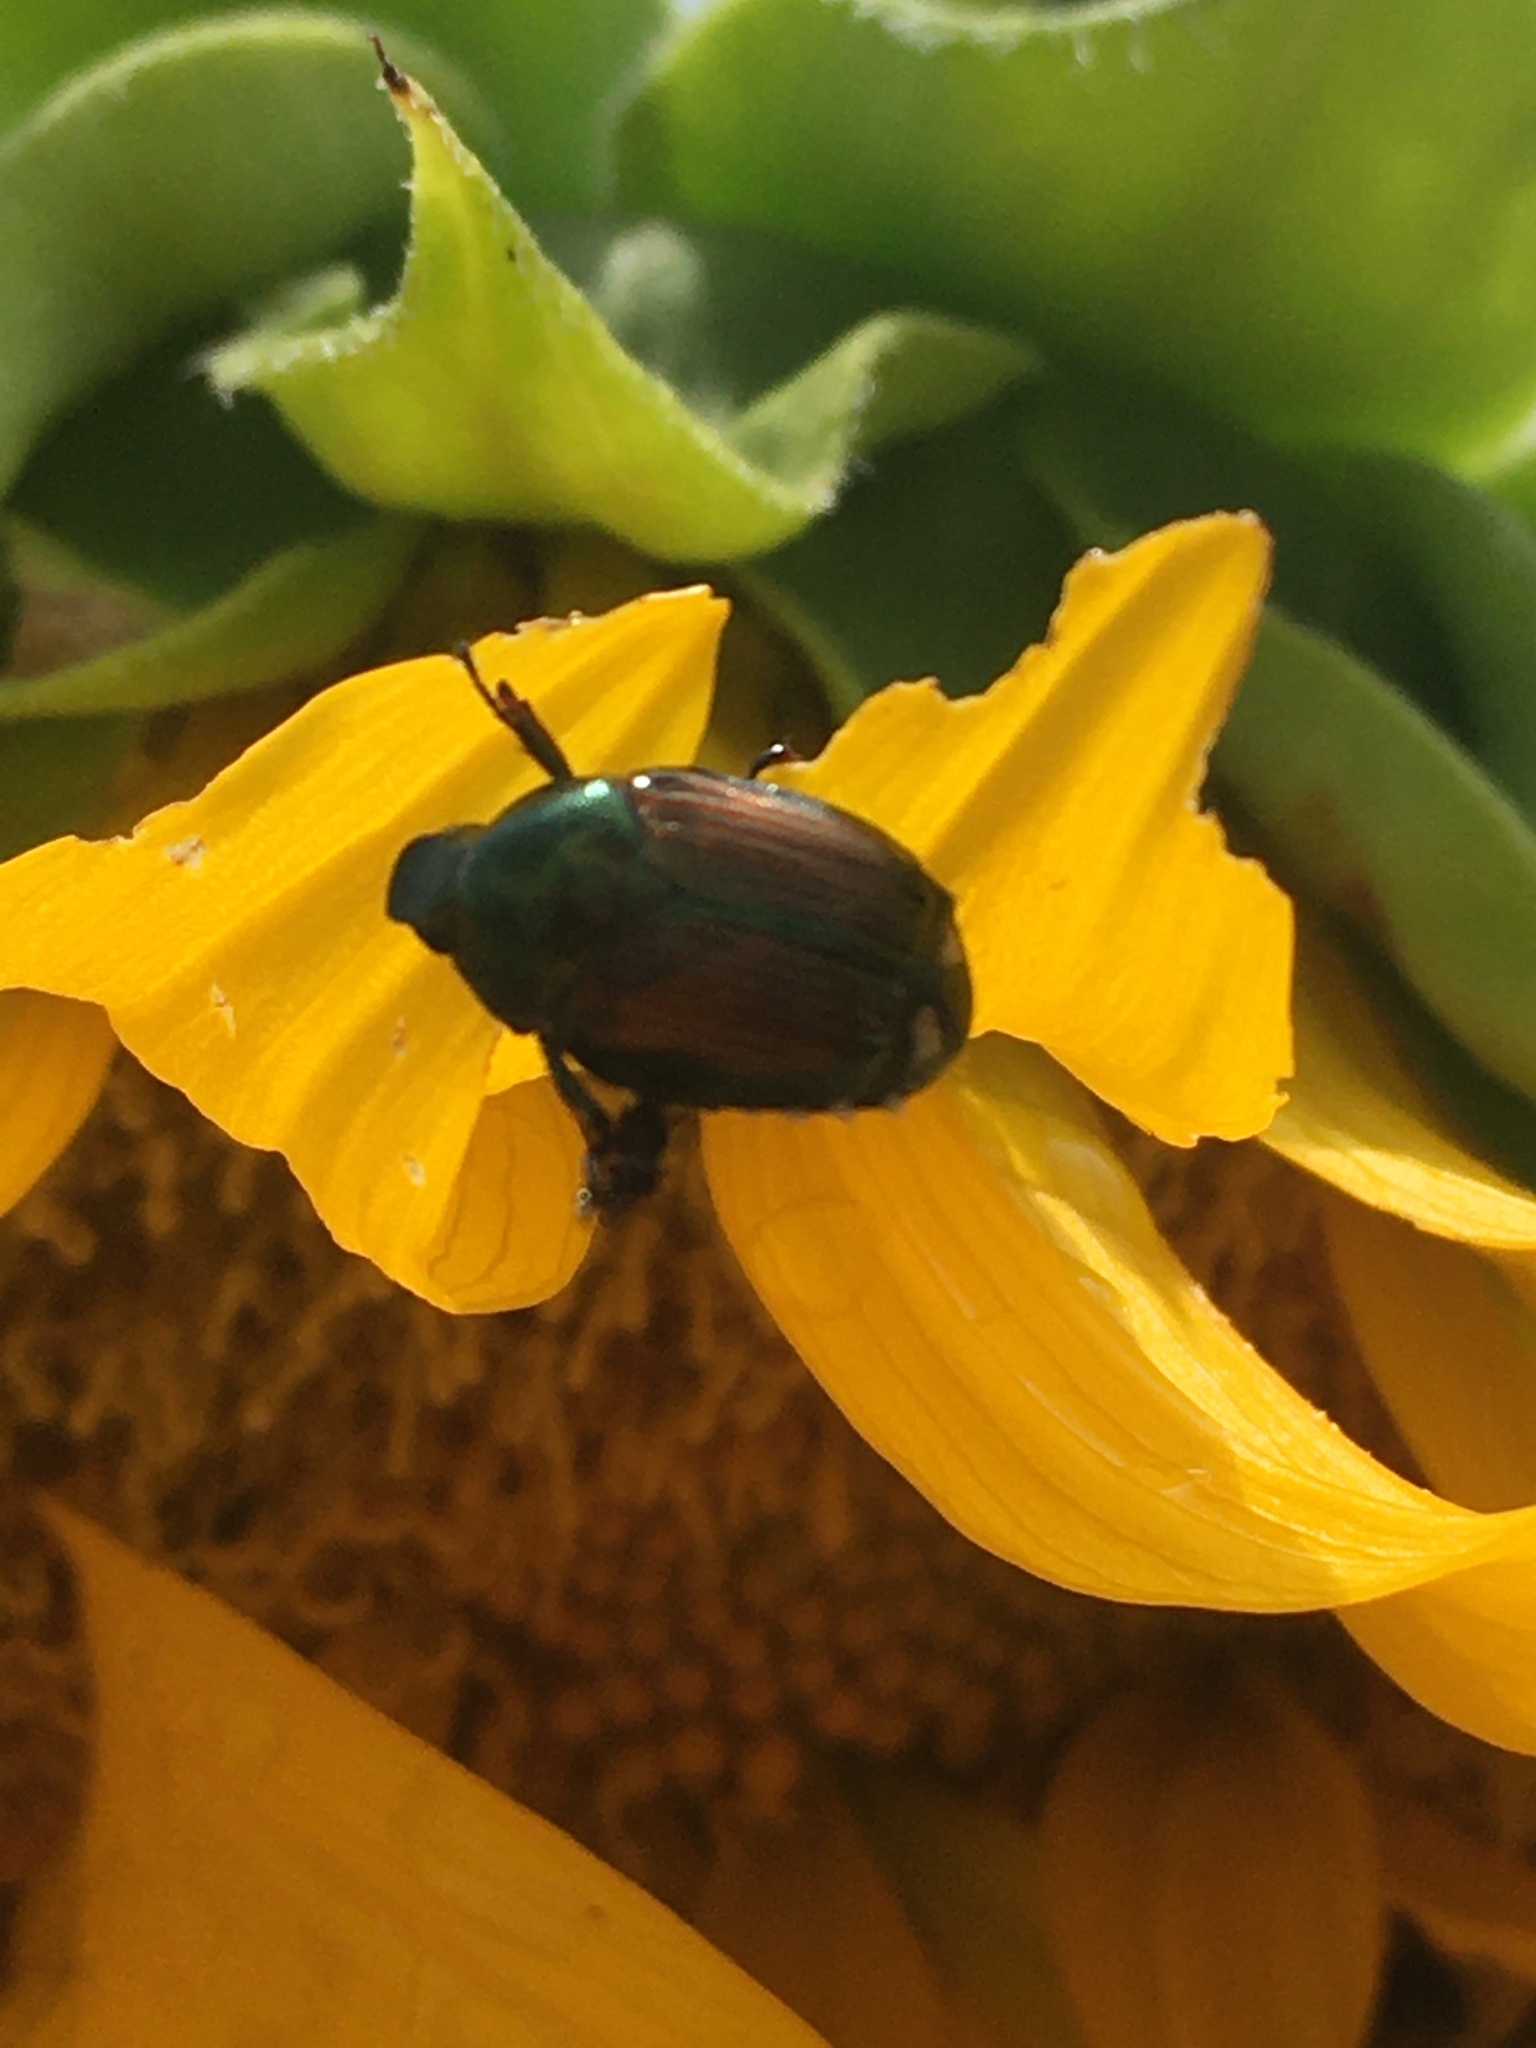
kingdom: Animalia
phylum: Arthropoda
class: Insecta
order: Coleoptera
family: Scarabaeidae
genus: Popillia
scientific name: Popillia japonica
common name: Japanese beetle
